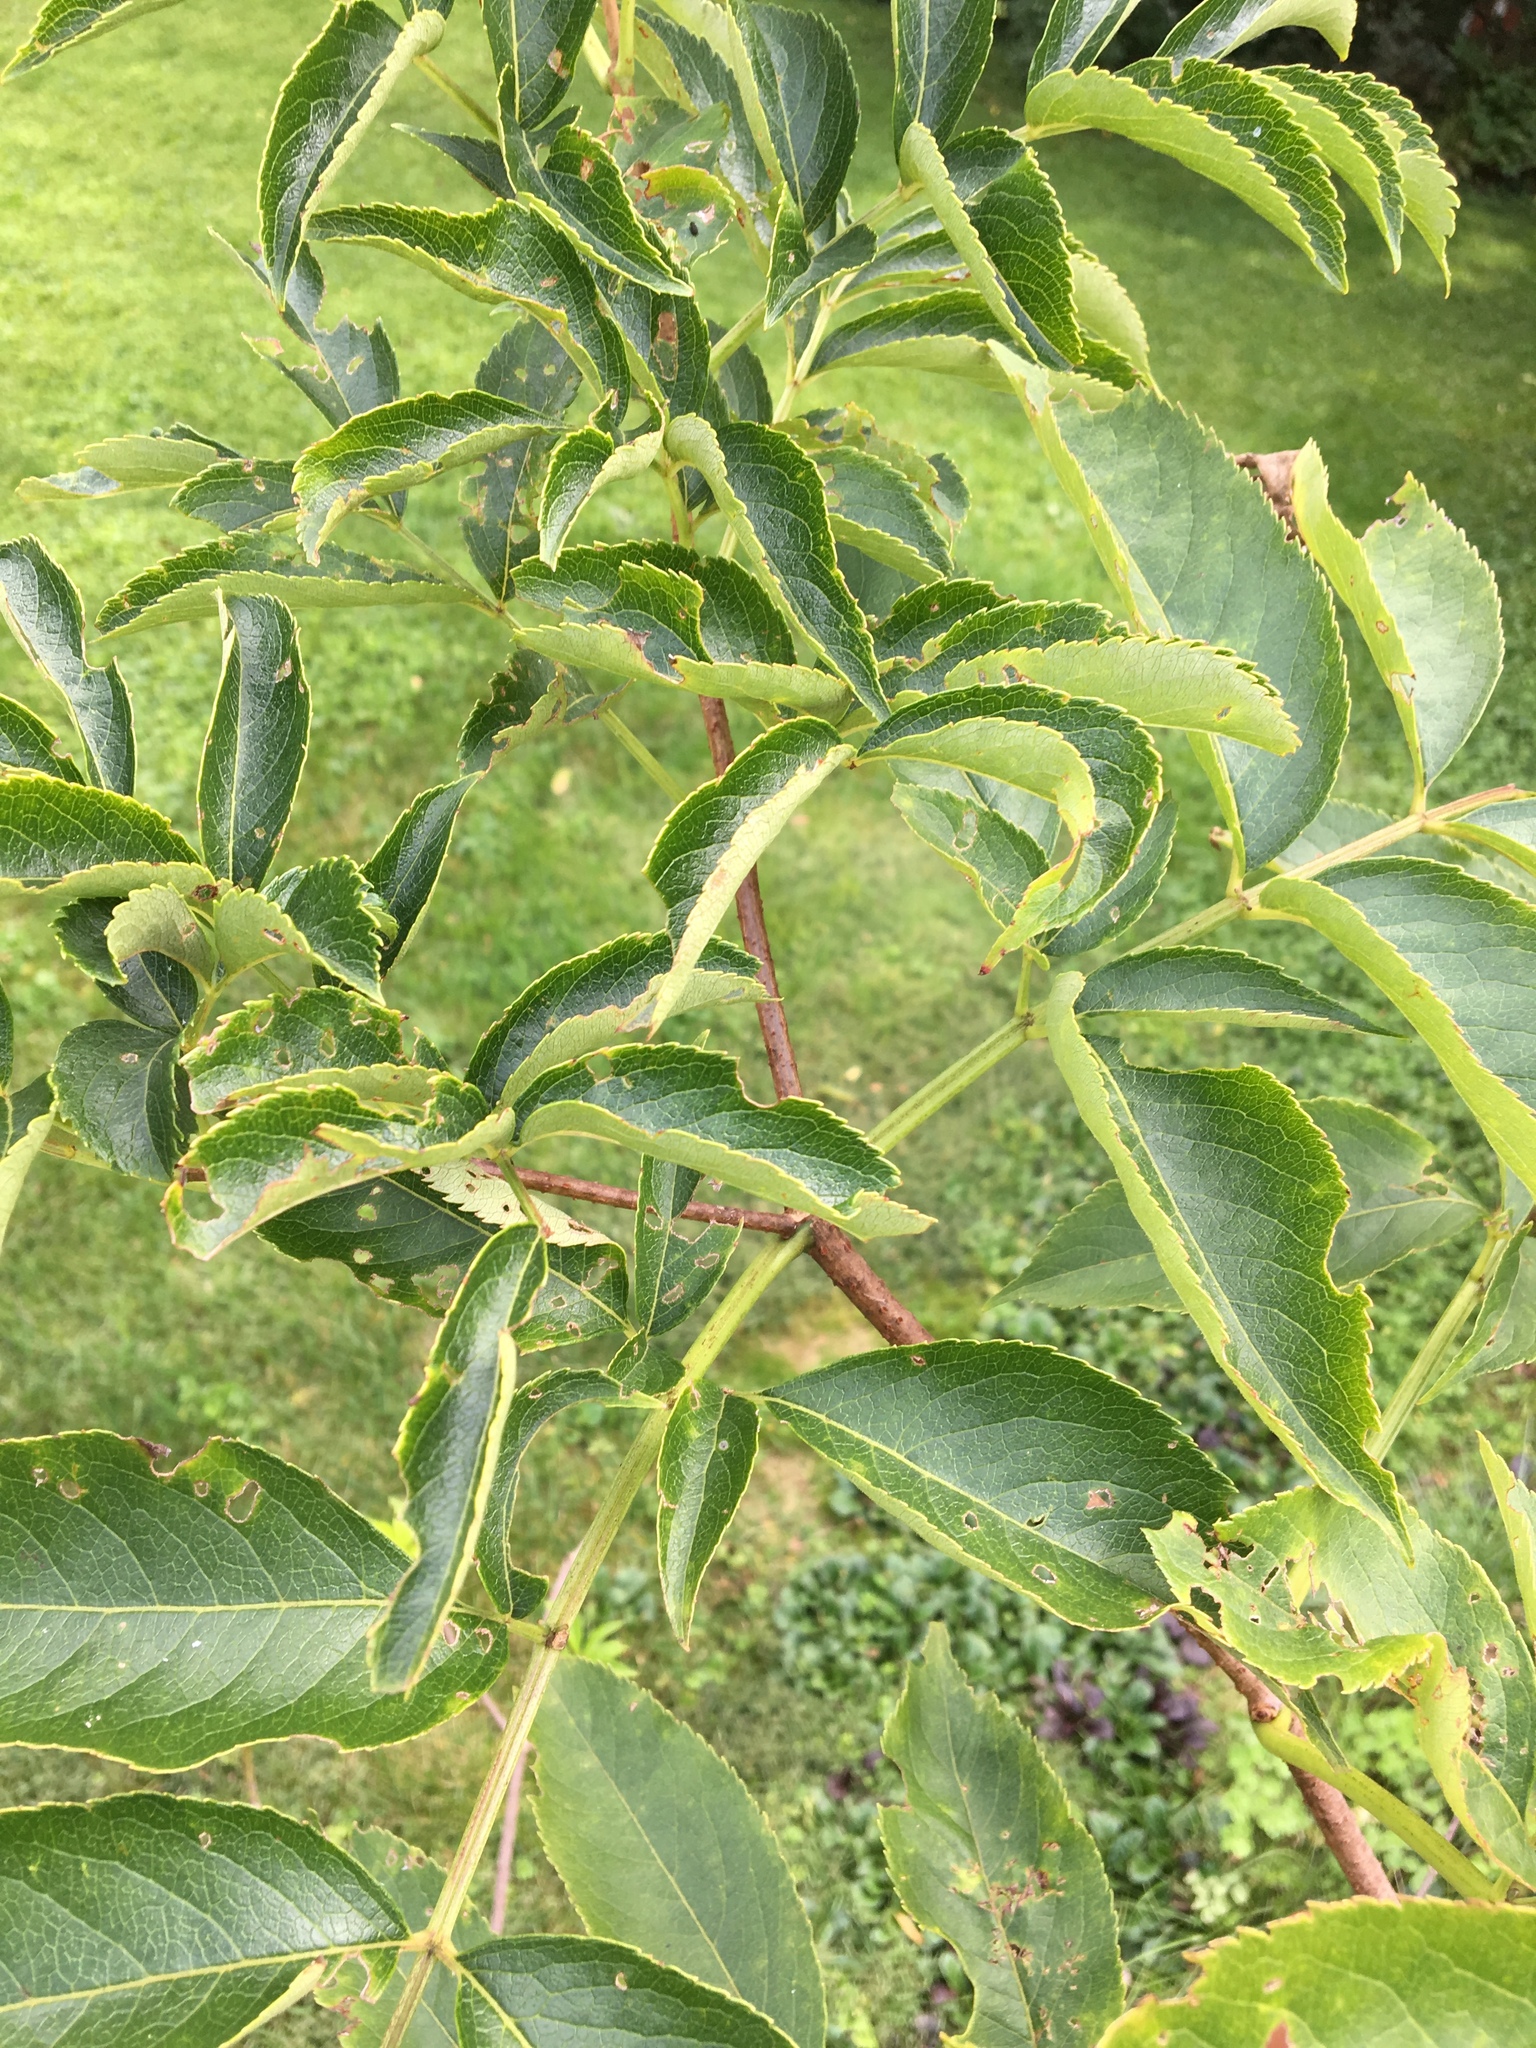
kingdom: Plantae
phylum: Tracheophyta
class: Magnoliopsida
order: Dipsacales
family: Viburnaceae
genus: Sambucus
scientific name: Sambucus canadensis
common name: American elder
